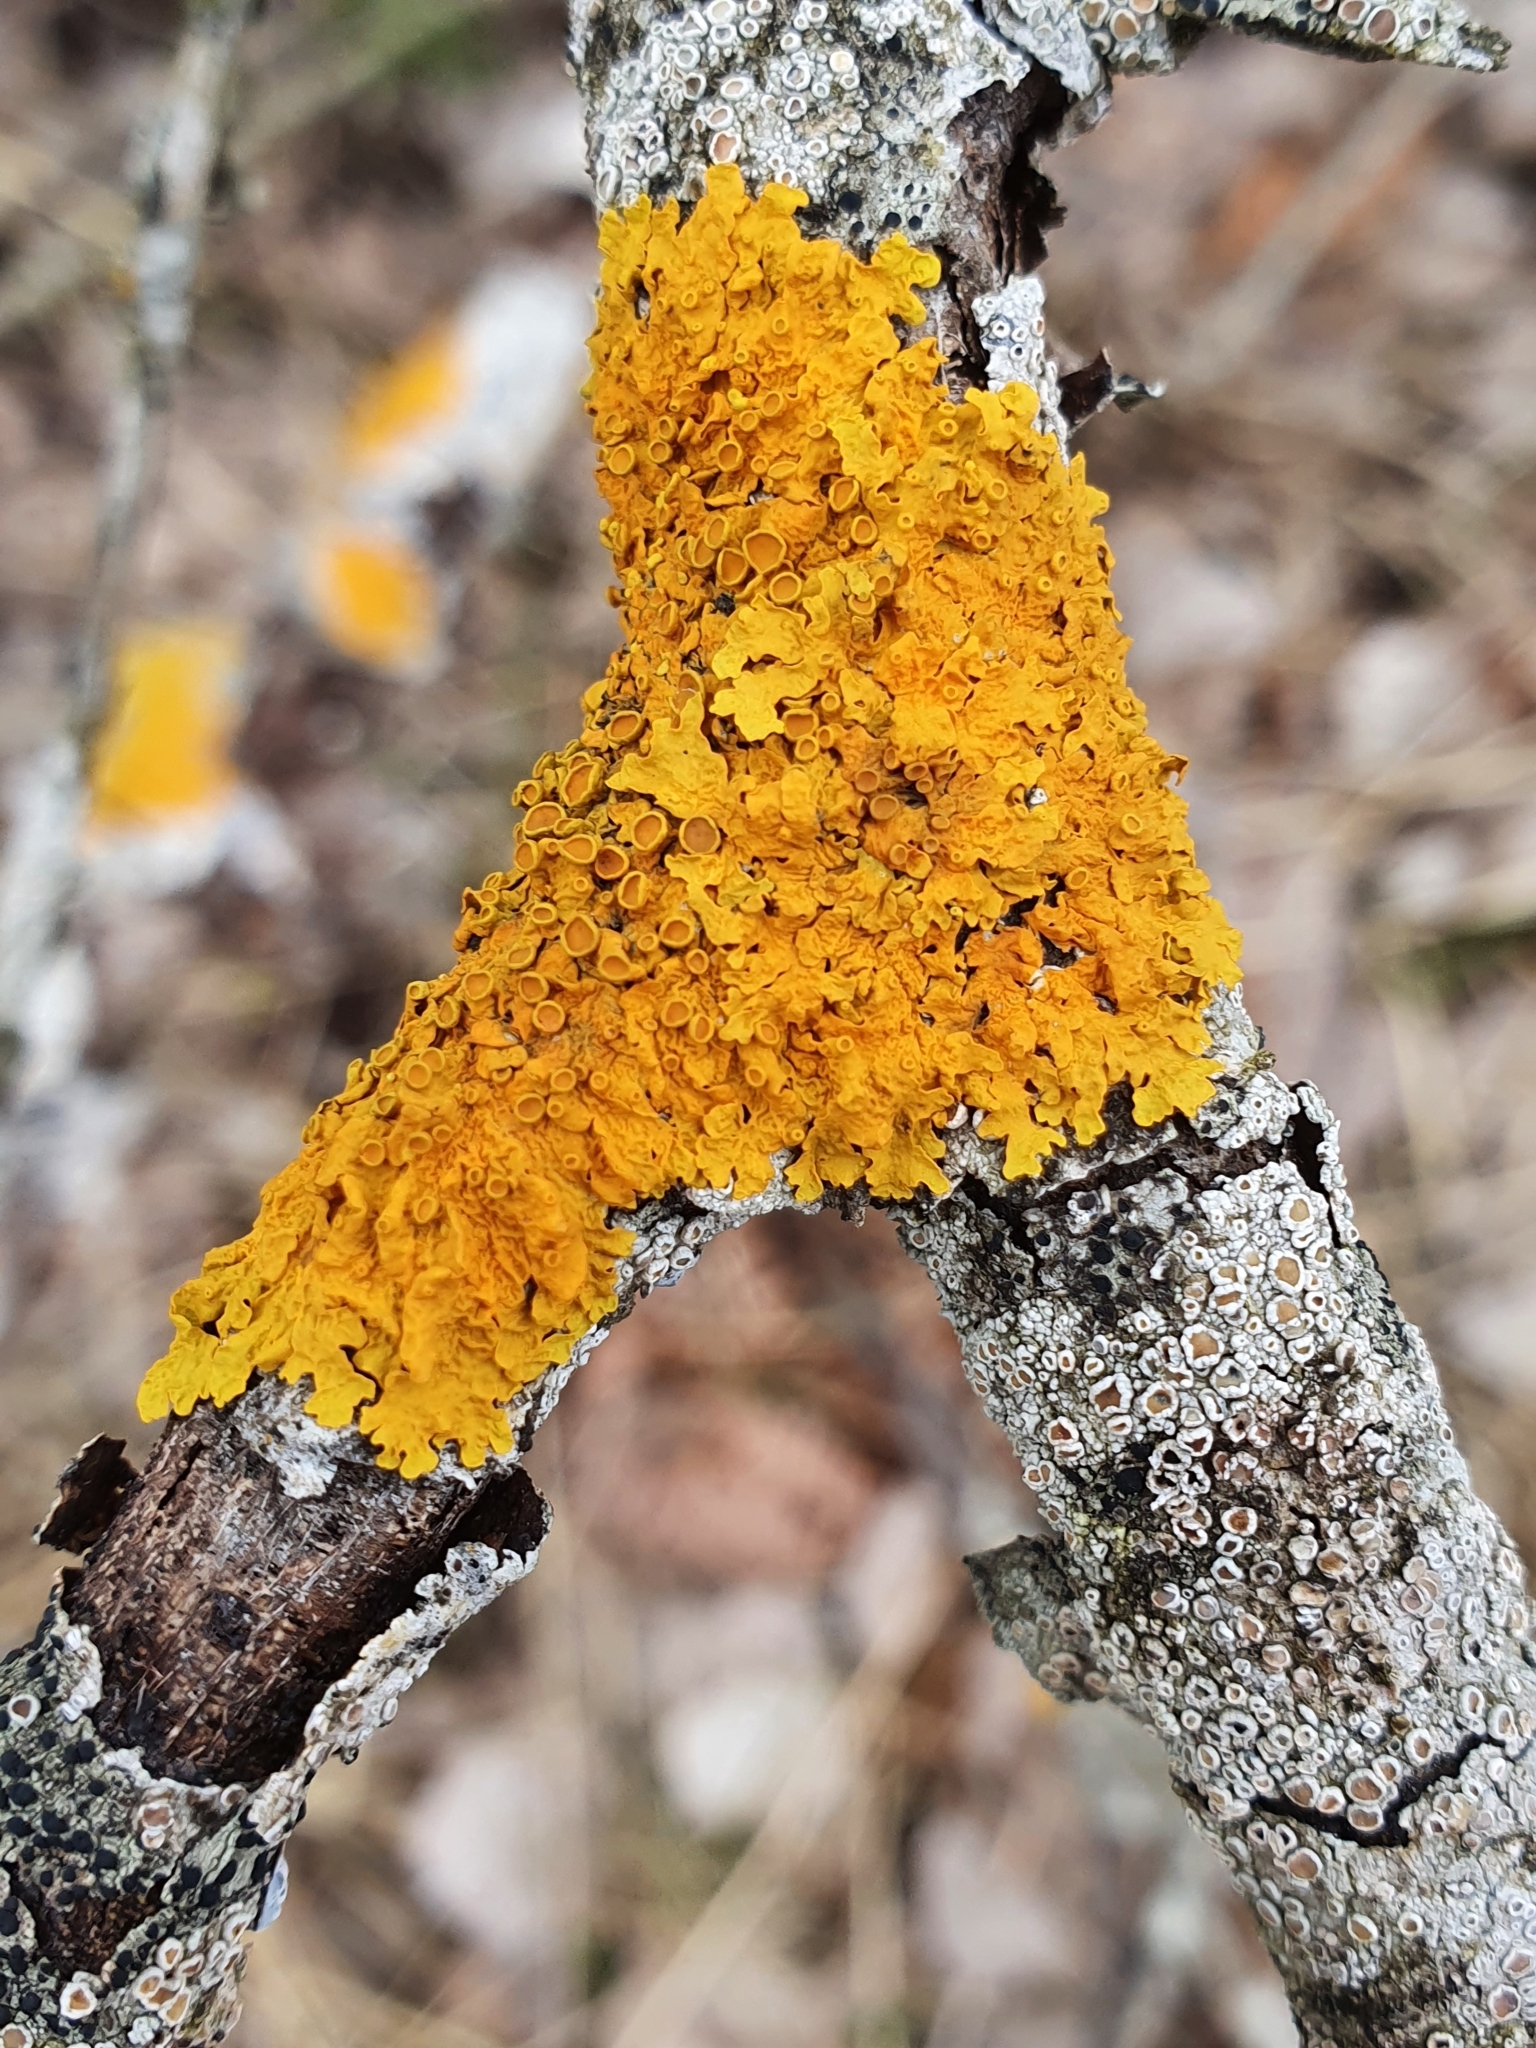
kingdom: Fungi
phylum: Ascomycota
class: Lecanoromycetes
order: Teloschistales
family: Teloschistaceae
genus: Xanthoria
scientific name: Xanthoria parietina
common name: Common orange lichen
